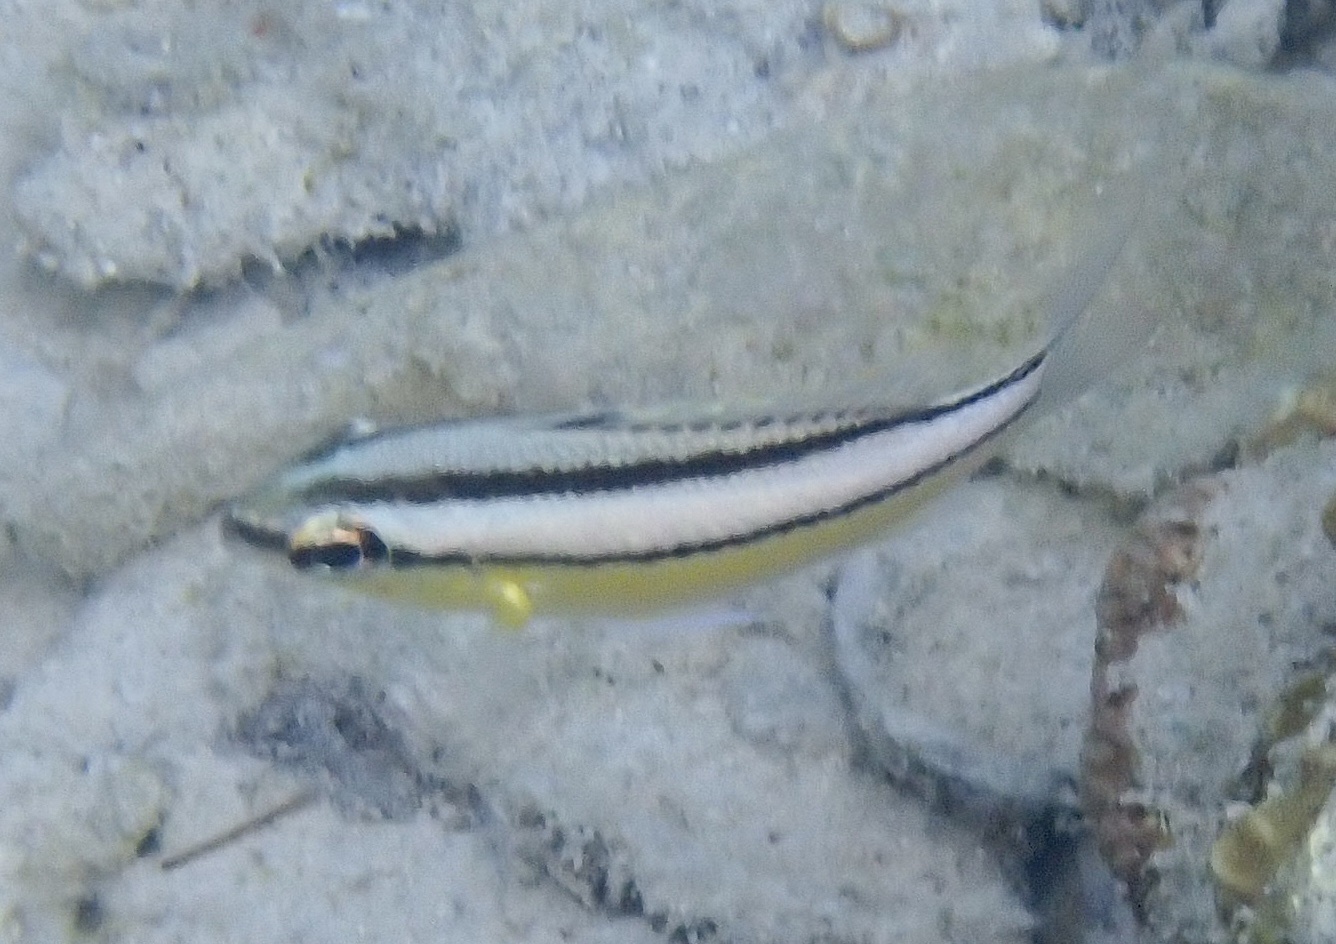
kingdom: Animalia
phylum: Chordata
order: Perciformes
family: Nemipteridae
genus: Scolopsis
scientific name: Scolopsis margaritifera
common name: Pearly monocle bream
